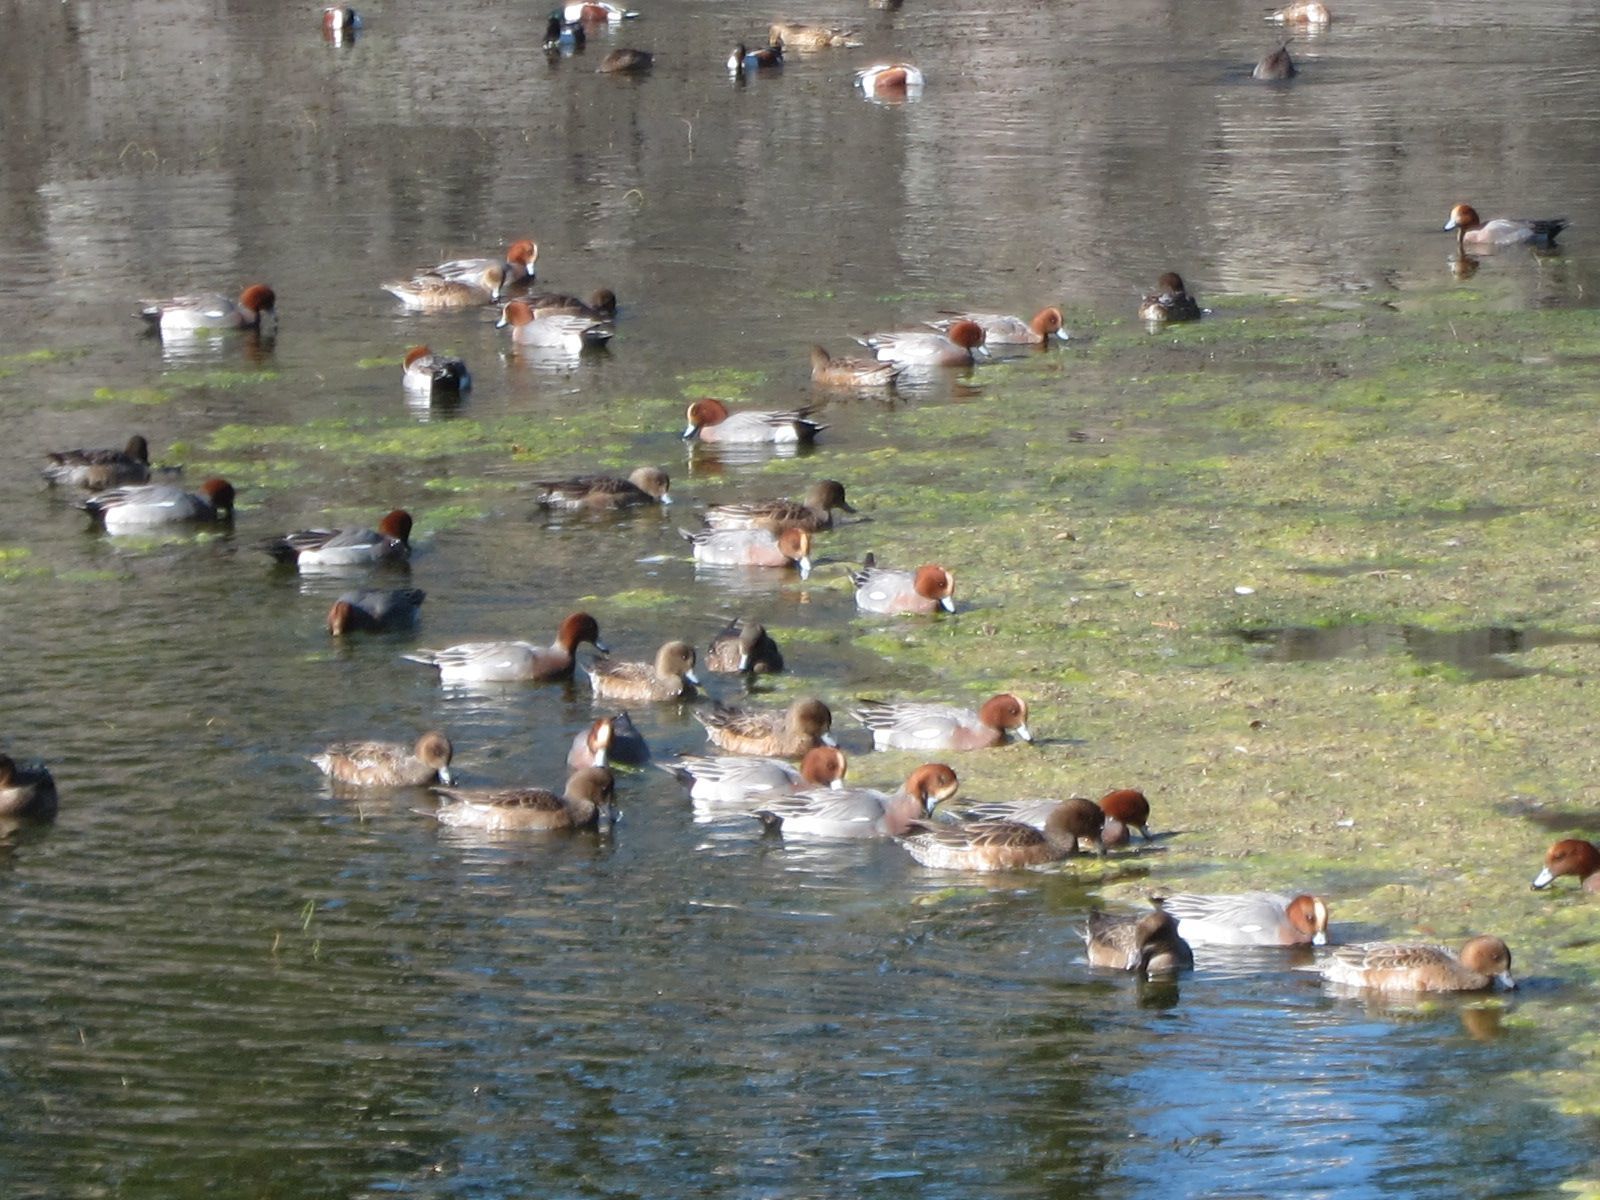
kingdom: Animalia
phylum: Chordata
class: Aves
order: Anseriformes
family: Anatidae
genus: Mareca
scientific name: Mareca penelope
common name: Eurasian wigeon
